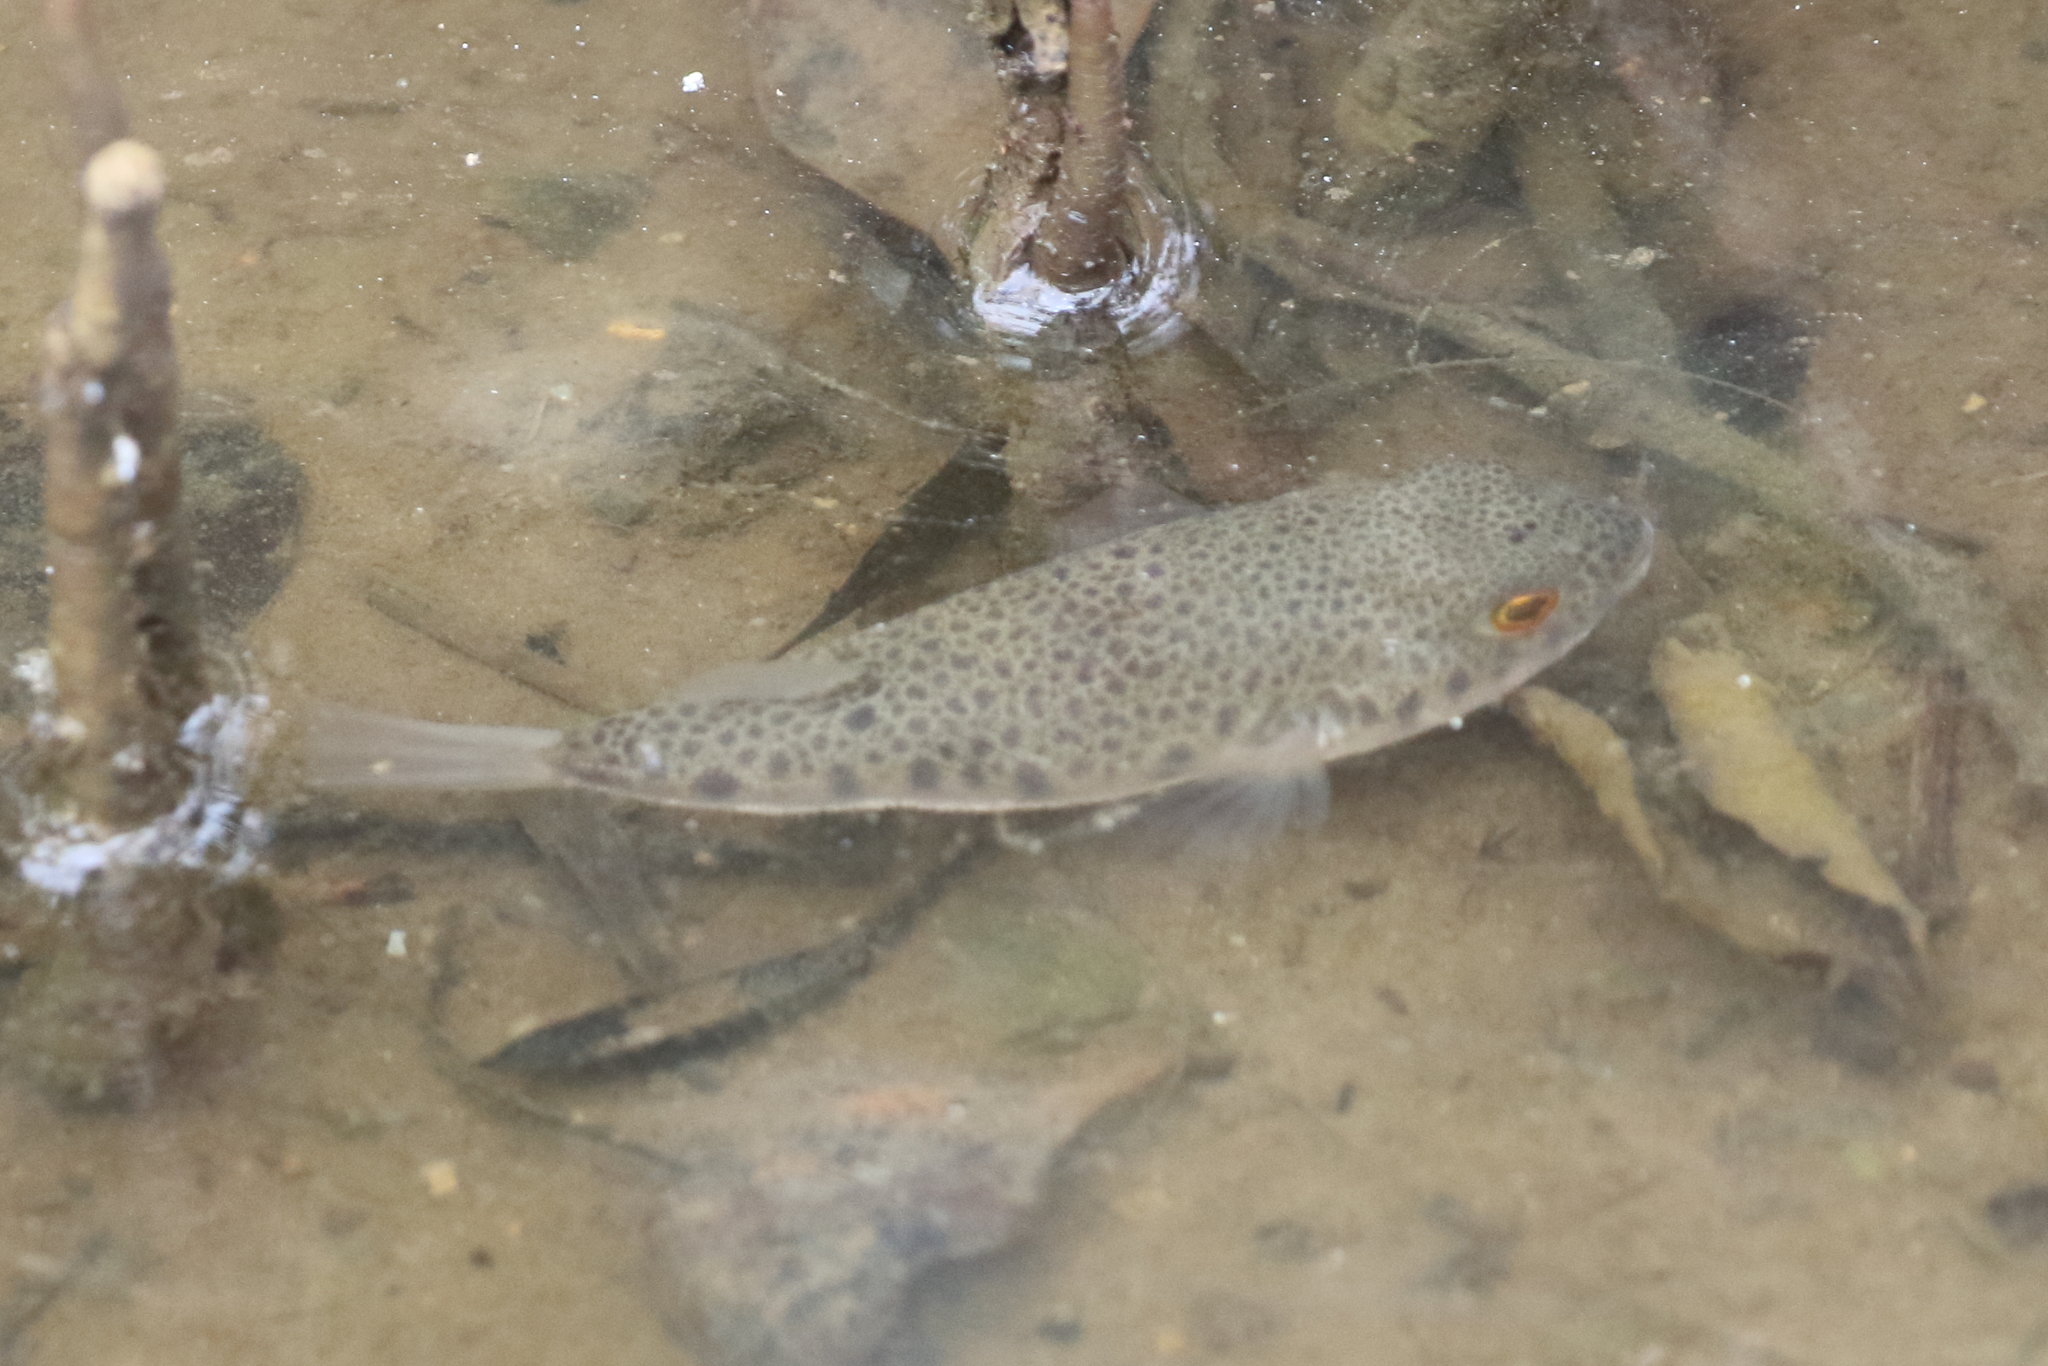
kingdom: Animalia
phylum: Chordata
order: Tetraodontiformes
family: Tetraodontidae
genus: Tetractenos
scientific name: Tetractenos hamiltoni
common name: Common toadfish
